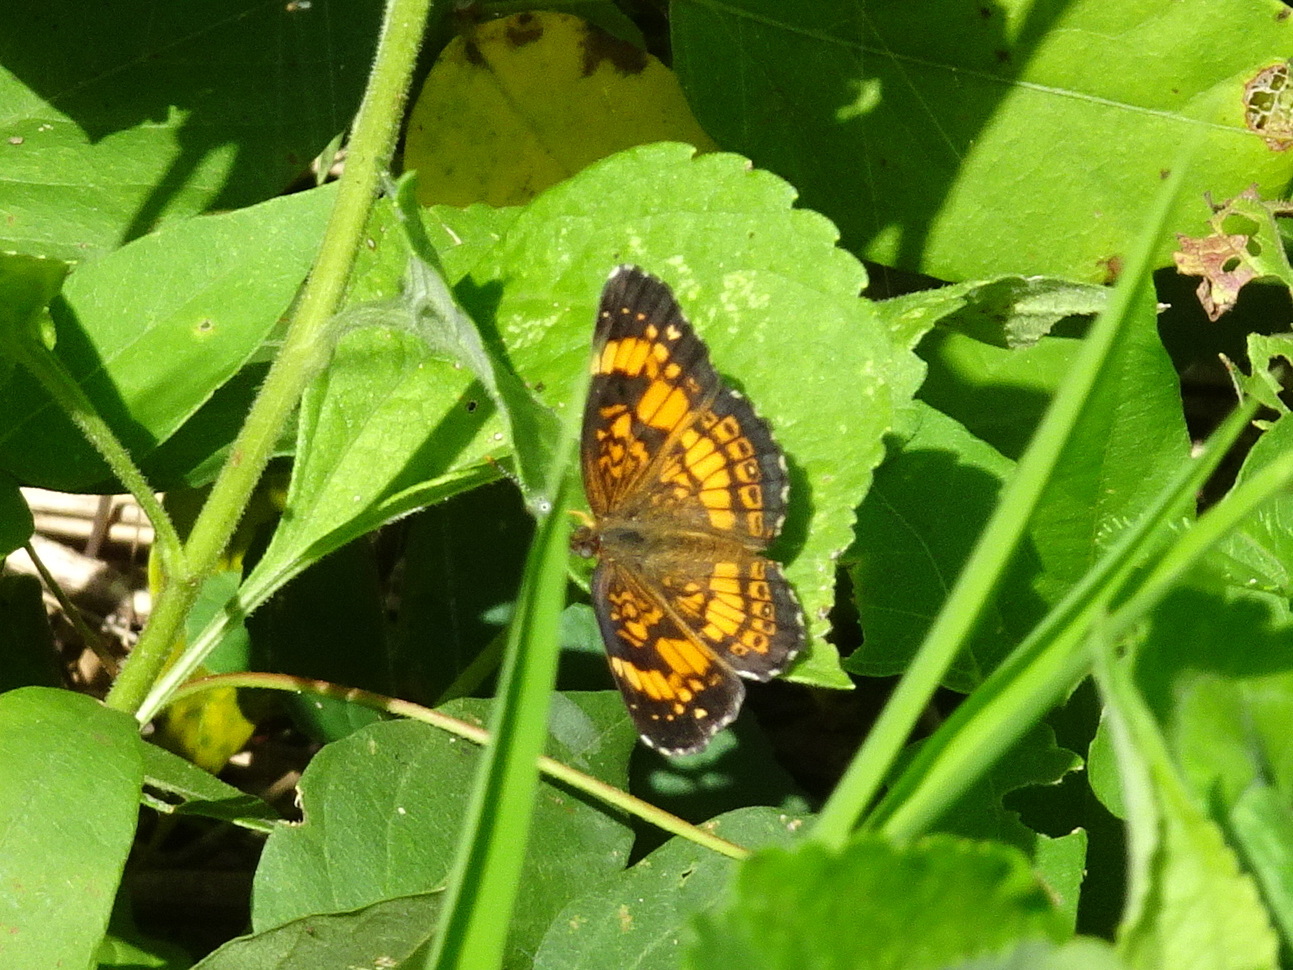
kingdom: Animalia
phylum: Arthropoda
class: Insecta
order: Lepidoptera
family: Nymphalidae
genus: Chlosyne
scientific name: Chlosyne nycteis
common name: Silvery checkerspot
